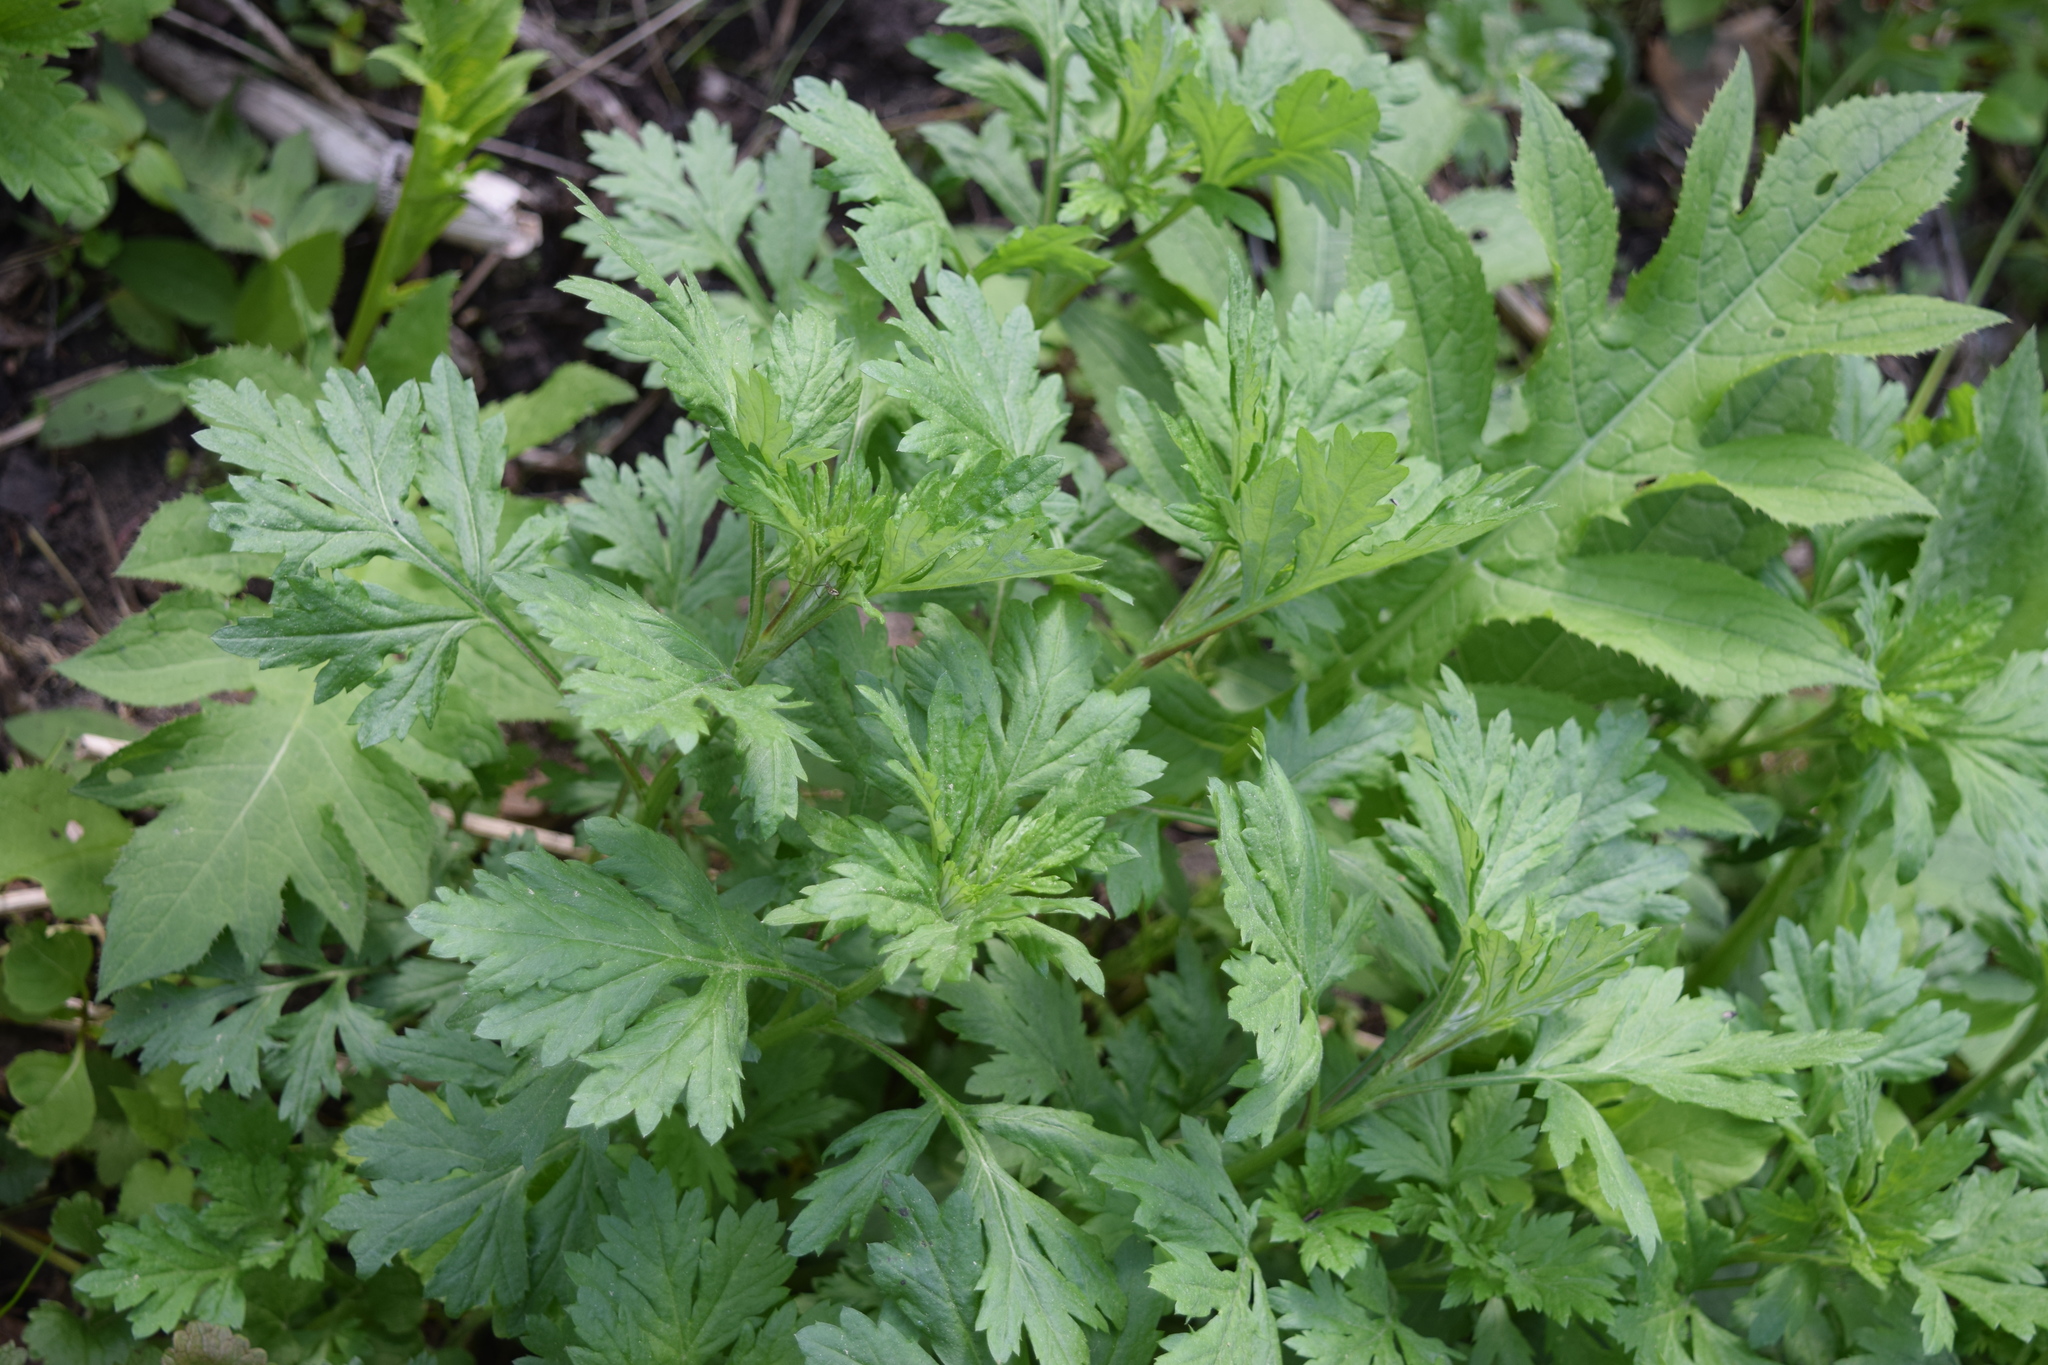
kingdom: Plantae
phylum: Tracheophyta
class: Magnoliopsida
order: Asterales
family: Asteraceae
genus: Artemisia
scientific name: Artemisia vulgaris
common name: Mugwort
